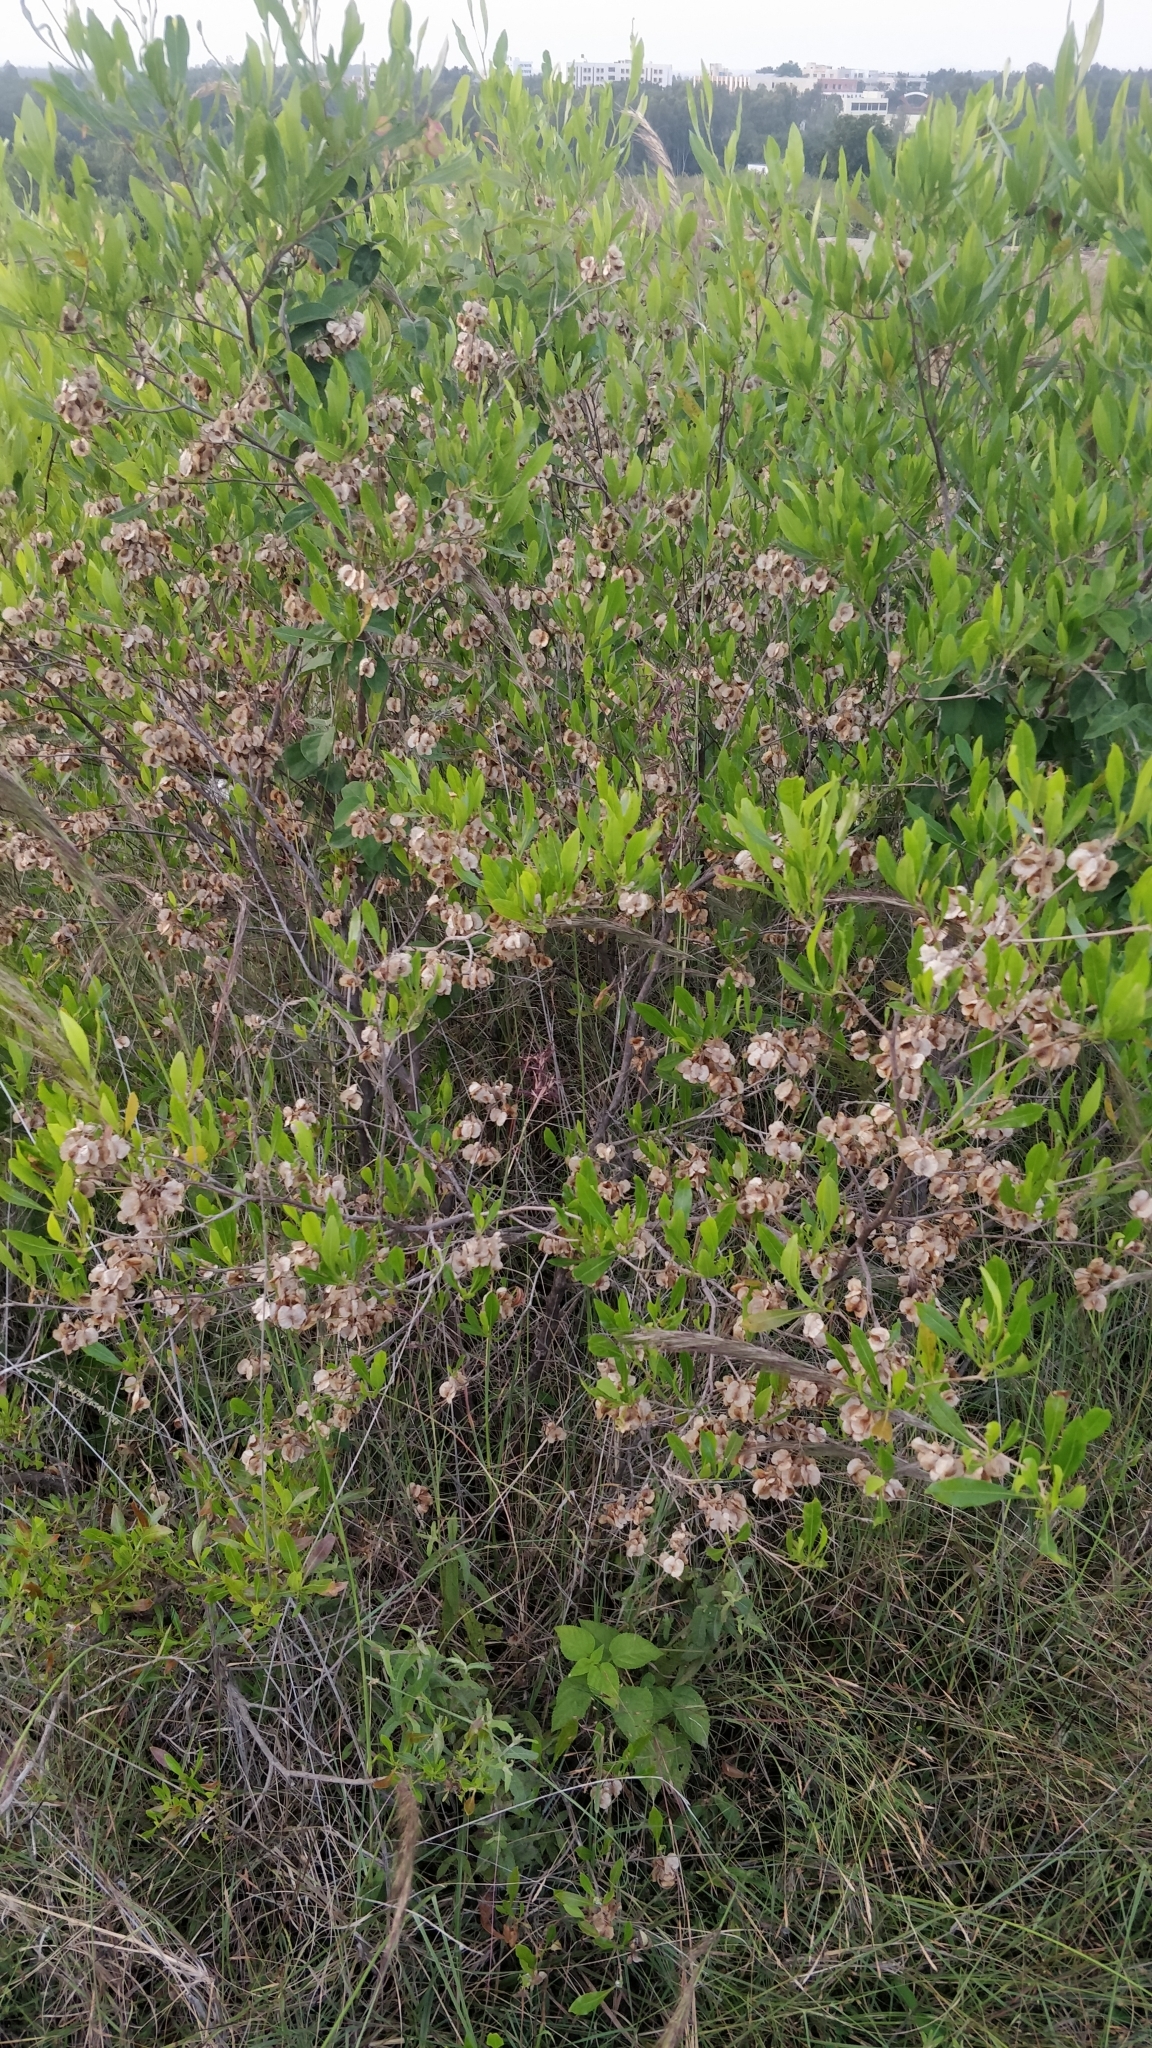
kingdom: Plantae
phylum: Tracheophyta
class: Magnoliopsida
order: Sapindales
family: Sapindaceae
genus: Dodonaea
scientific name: Dodonaea viscosa
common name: Hopbush
